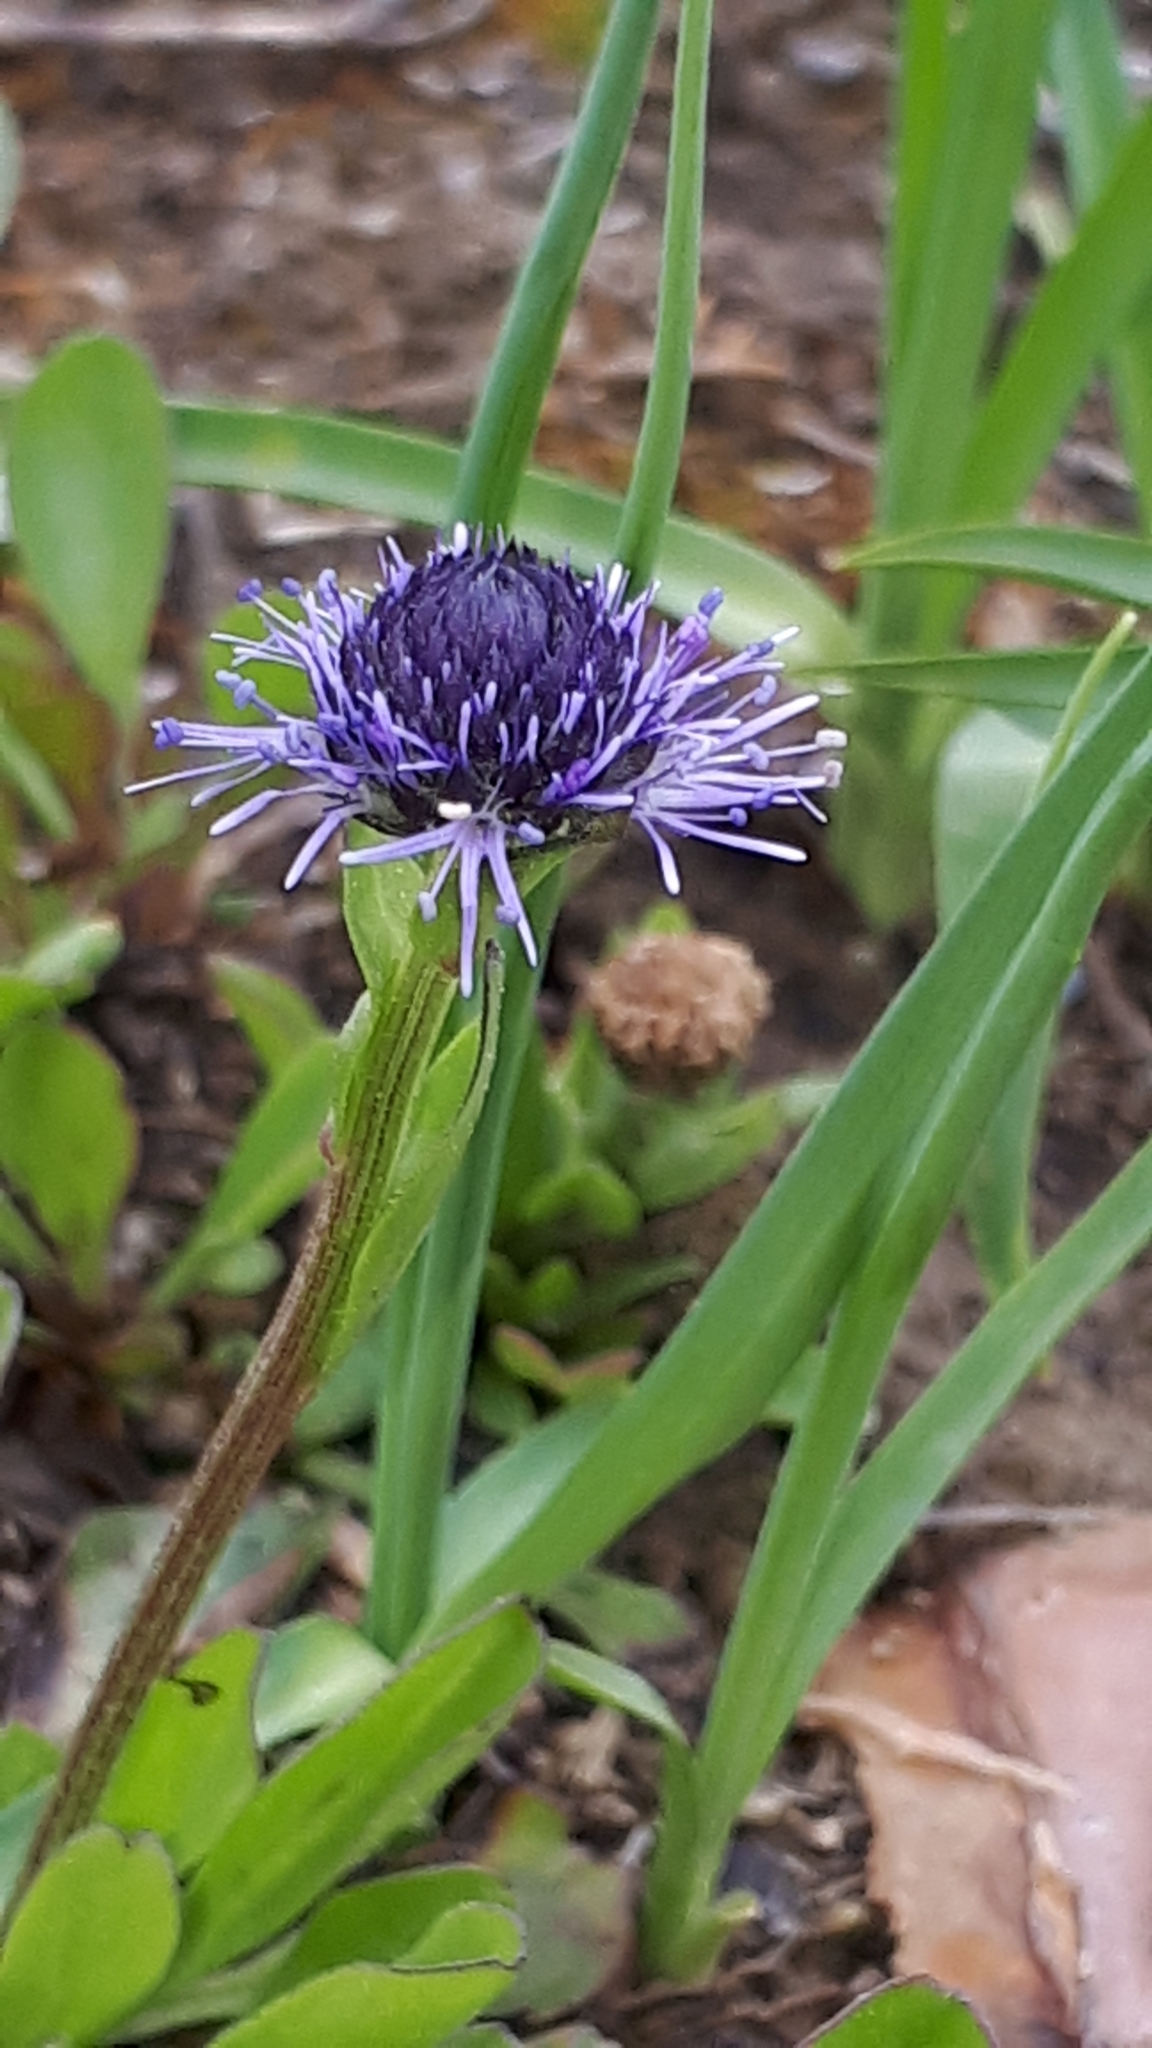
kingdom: Plantae
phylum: Tracheophyta
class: Magnoliopsida
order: Lamiales
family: Plantaginaceae
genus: Globularia
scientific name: Globularia bisnagarica
